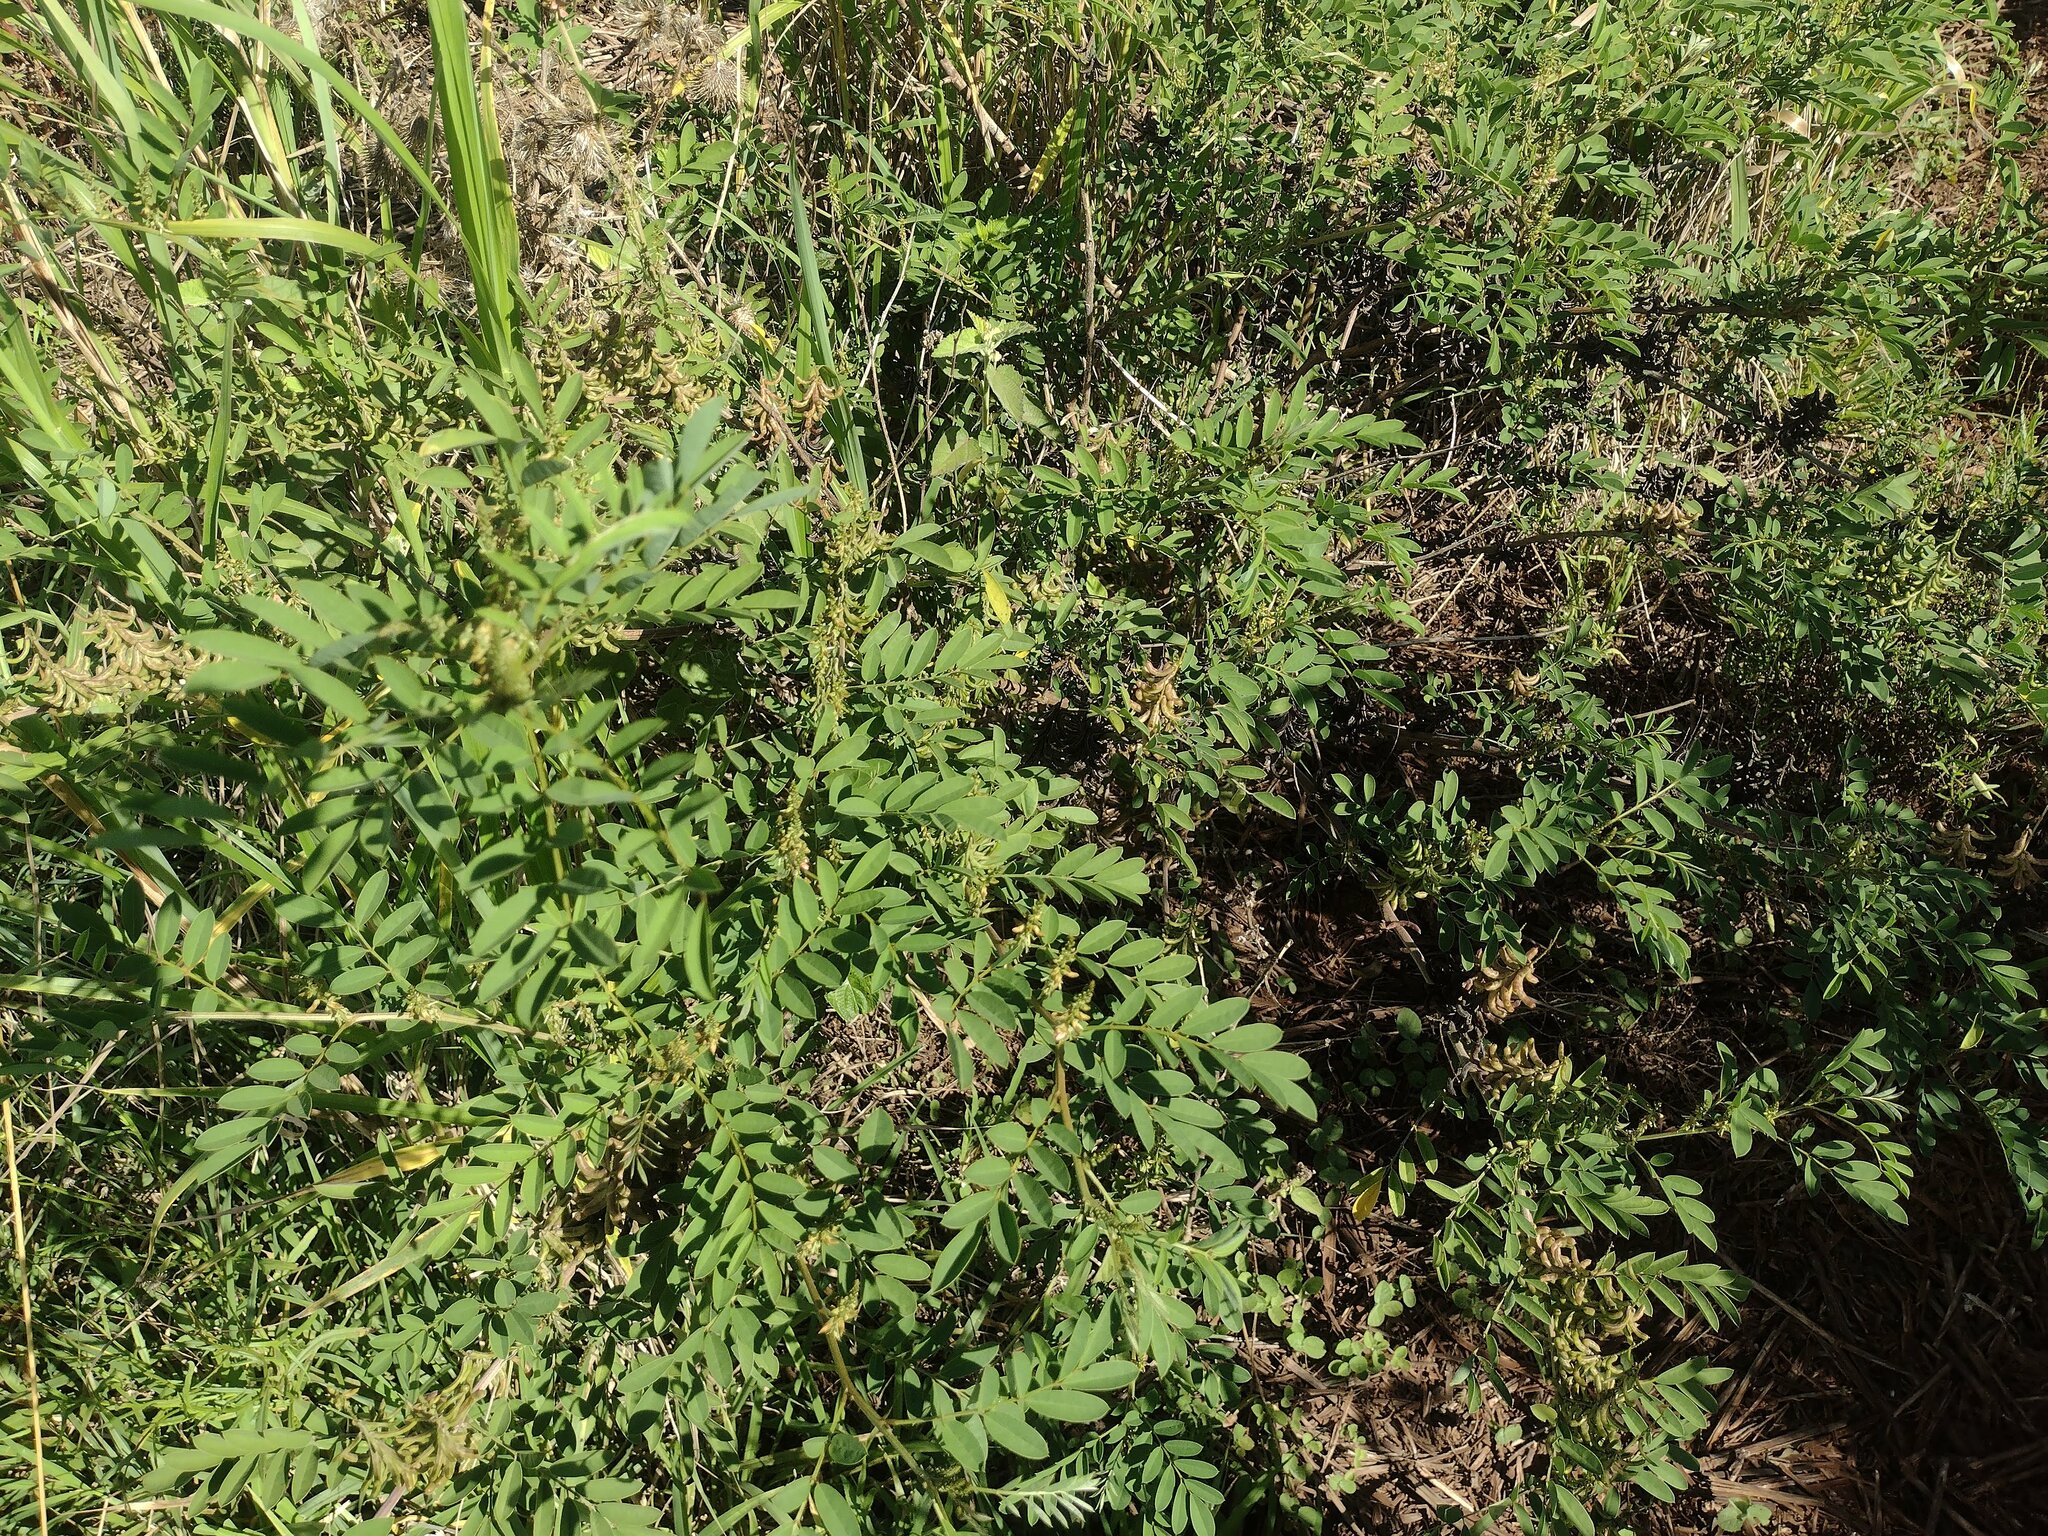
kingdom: Plantae
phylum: Tracheophyta
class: Magnoliopsida
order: Fabales
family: Fabaceae
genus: Indigofera
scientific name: Indigofera suffruticosa
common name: Anil de pasto
